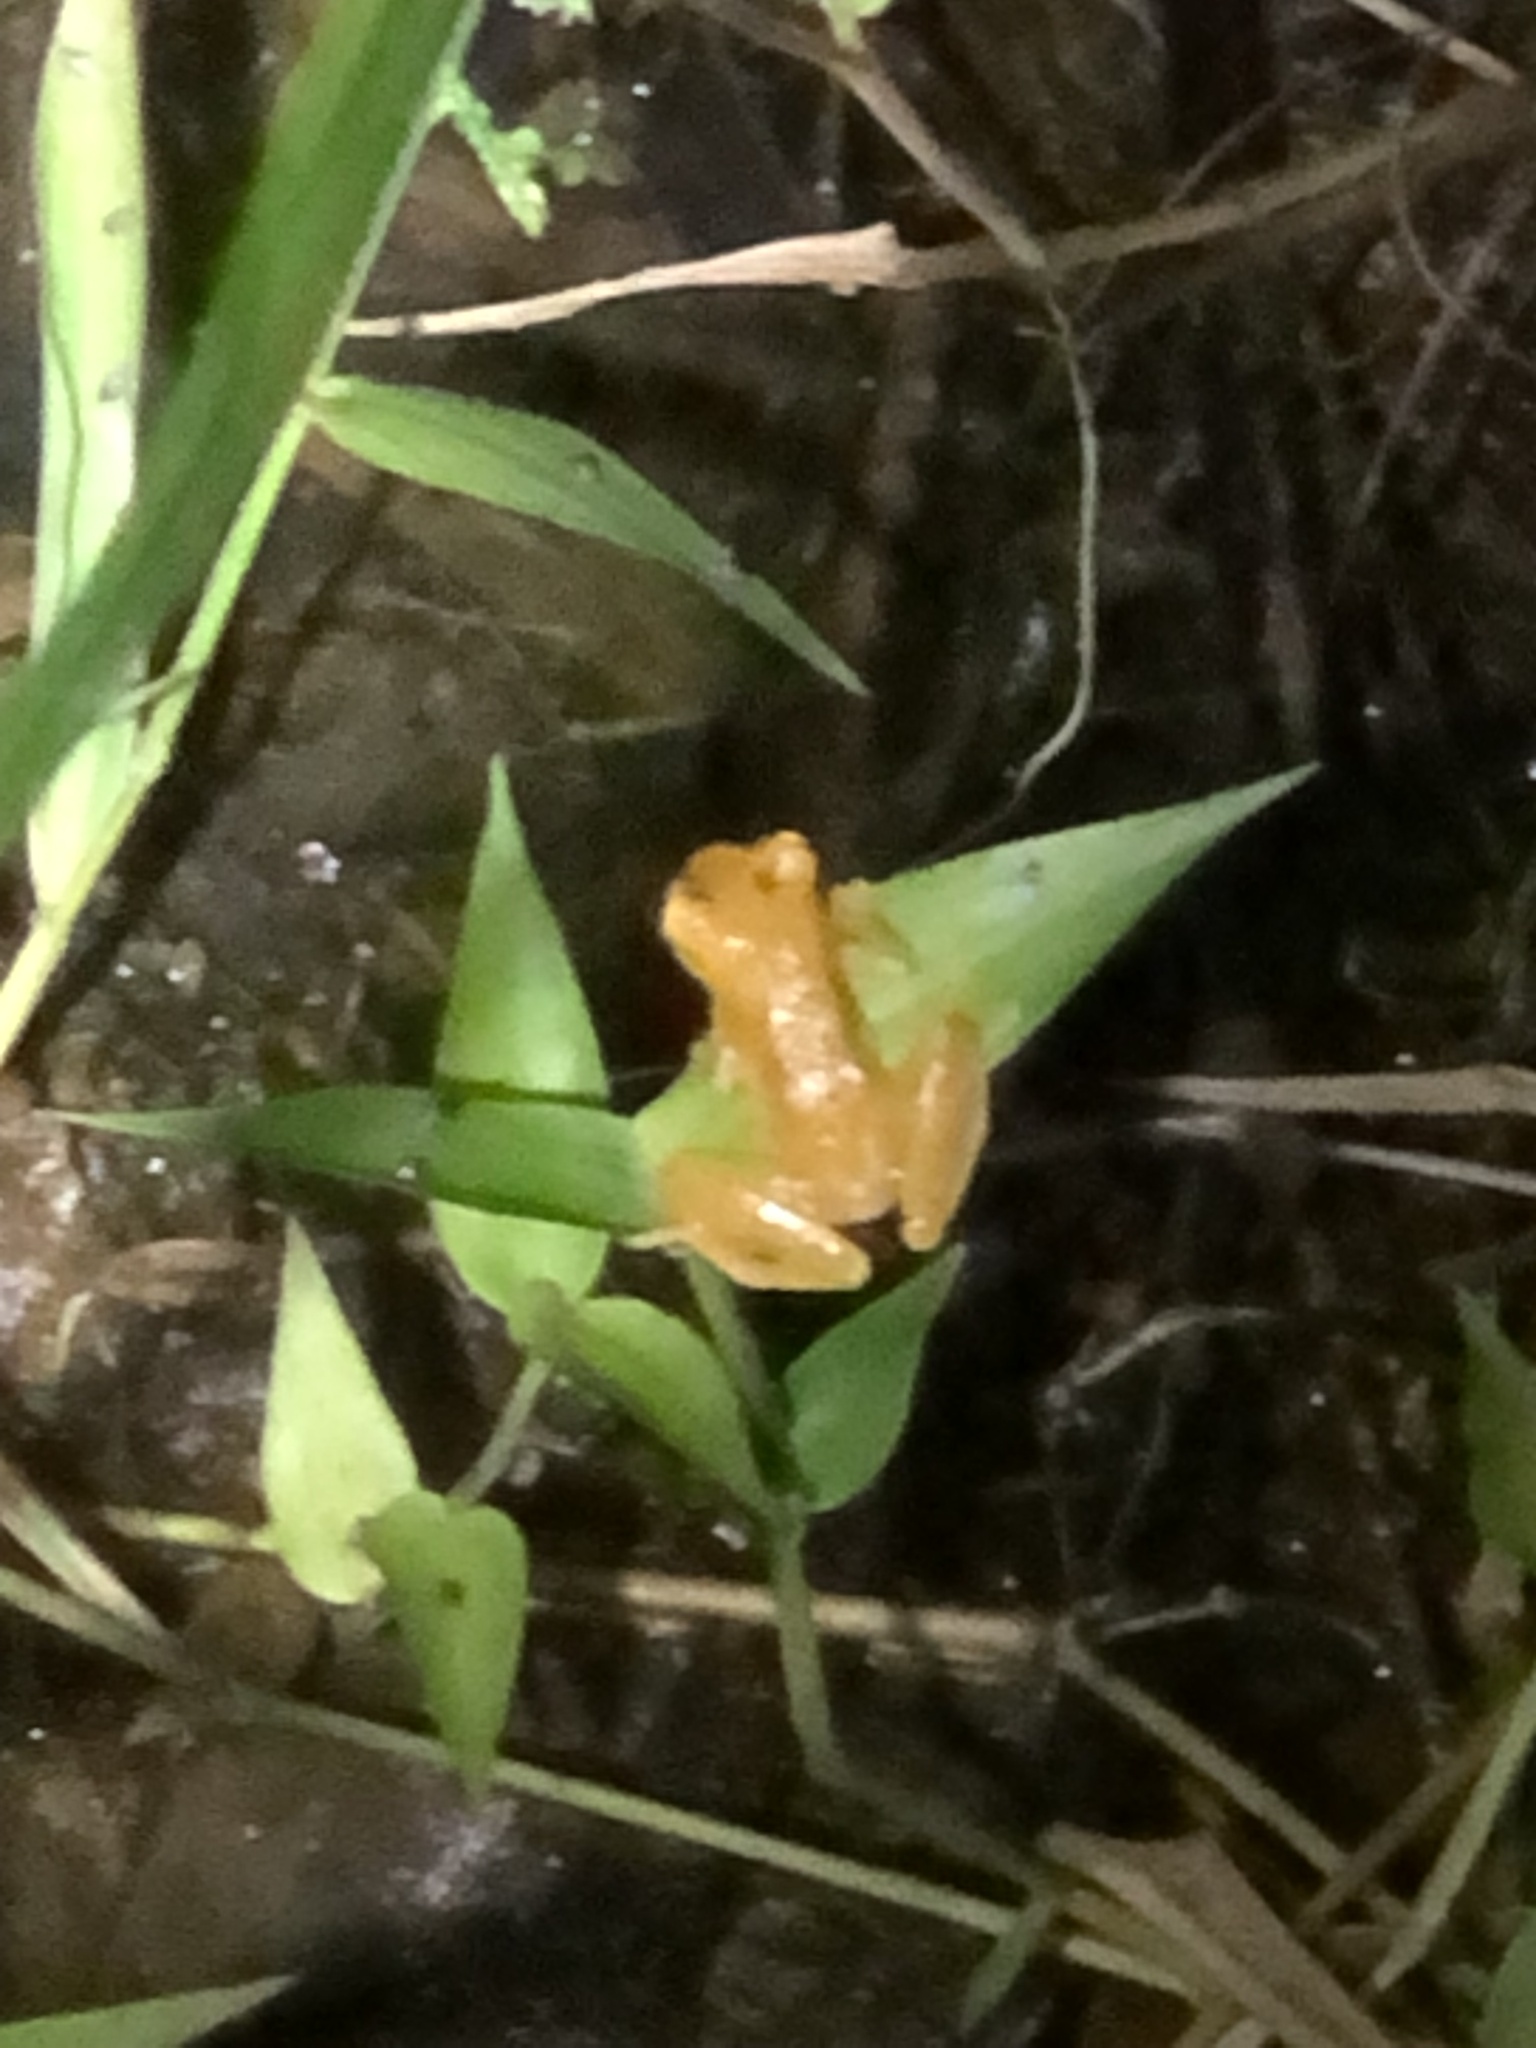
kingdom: Animalia
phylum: Chordata
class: Amphibia
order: Anura
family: Hylidae
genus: Dendropsophus
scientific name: Dendropsophus microcephalus
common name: Small-headed treefrog
